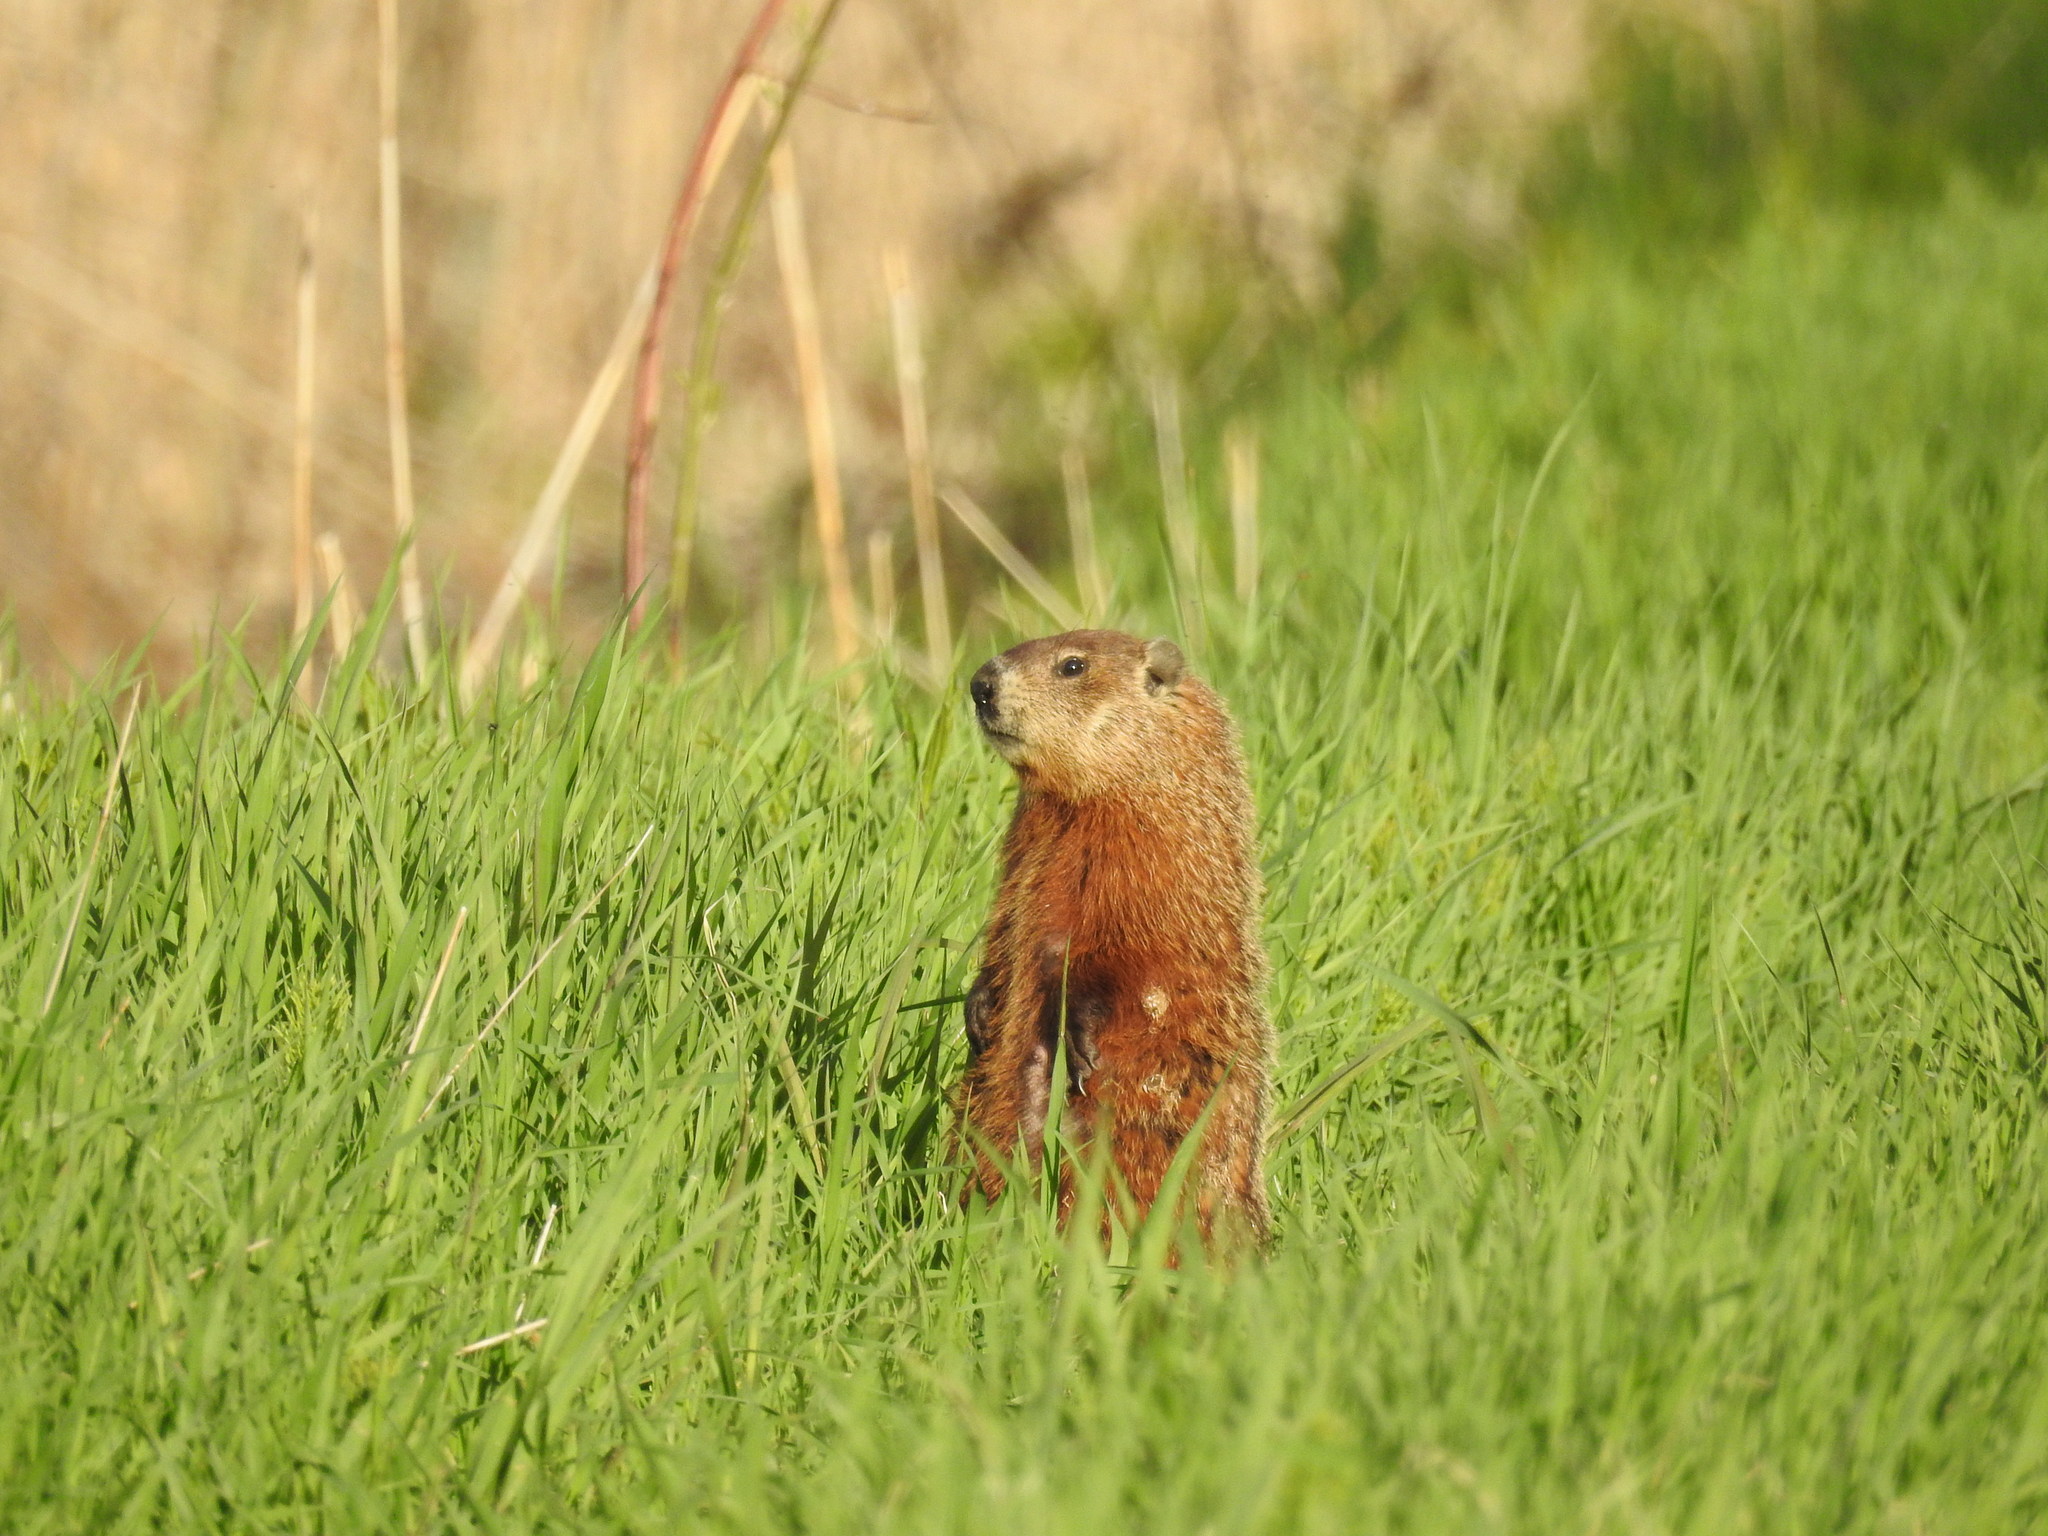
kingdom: Animalia
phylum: Chordata
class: Mammalia
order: Rodentia
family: Sciuridae
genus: Marmota
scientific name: Marmota monax
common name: Groundhog
